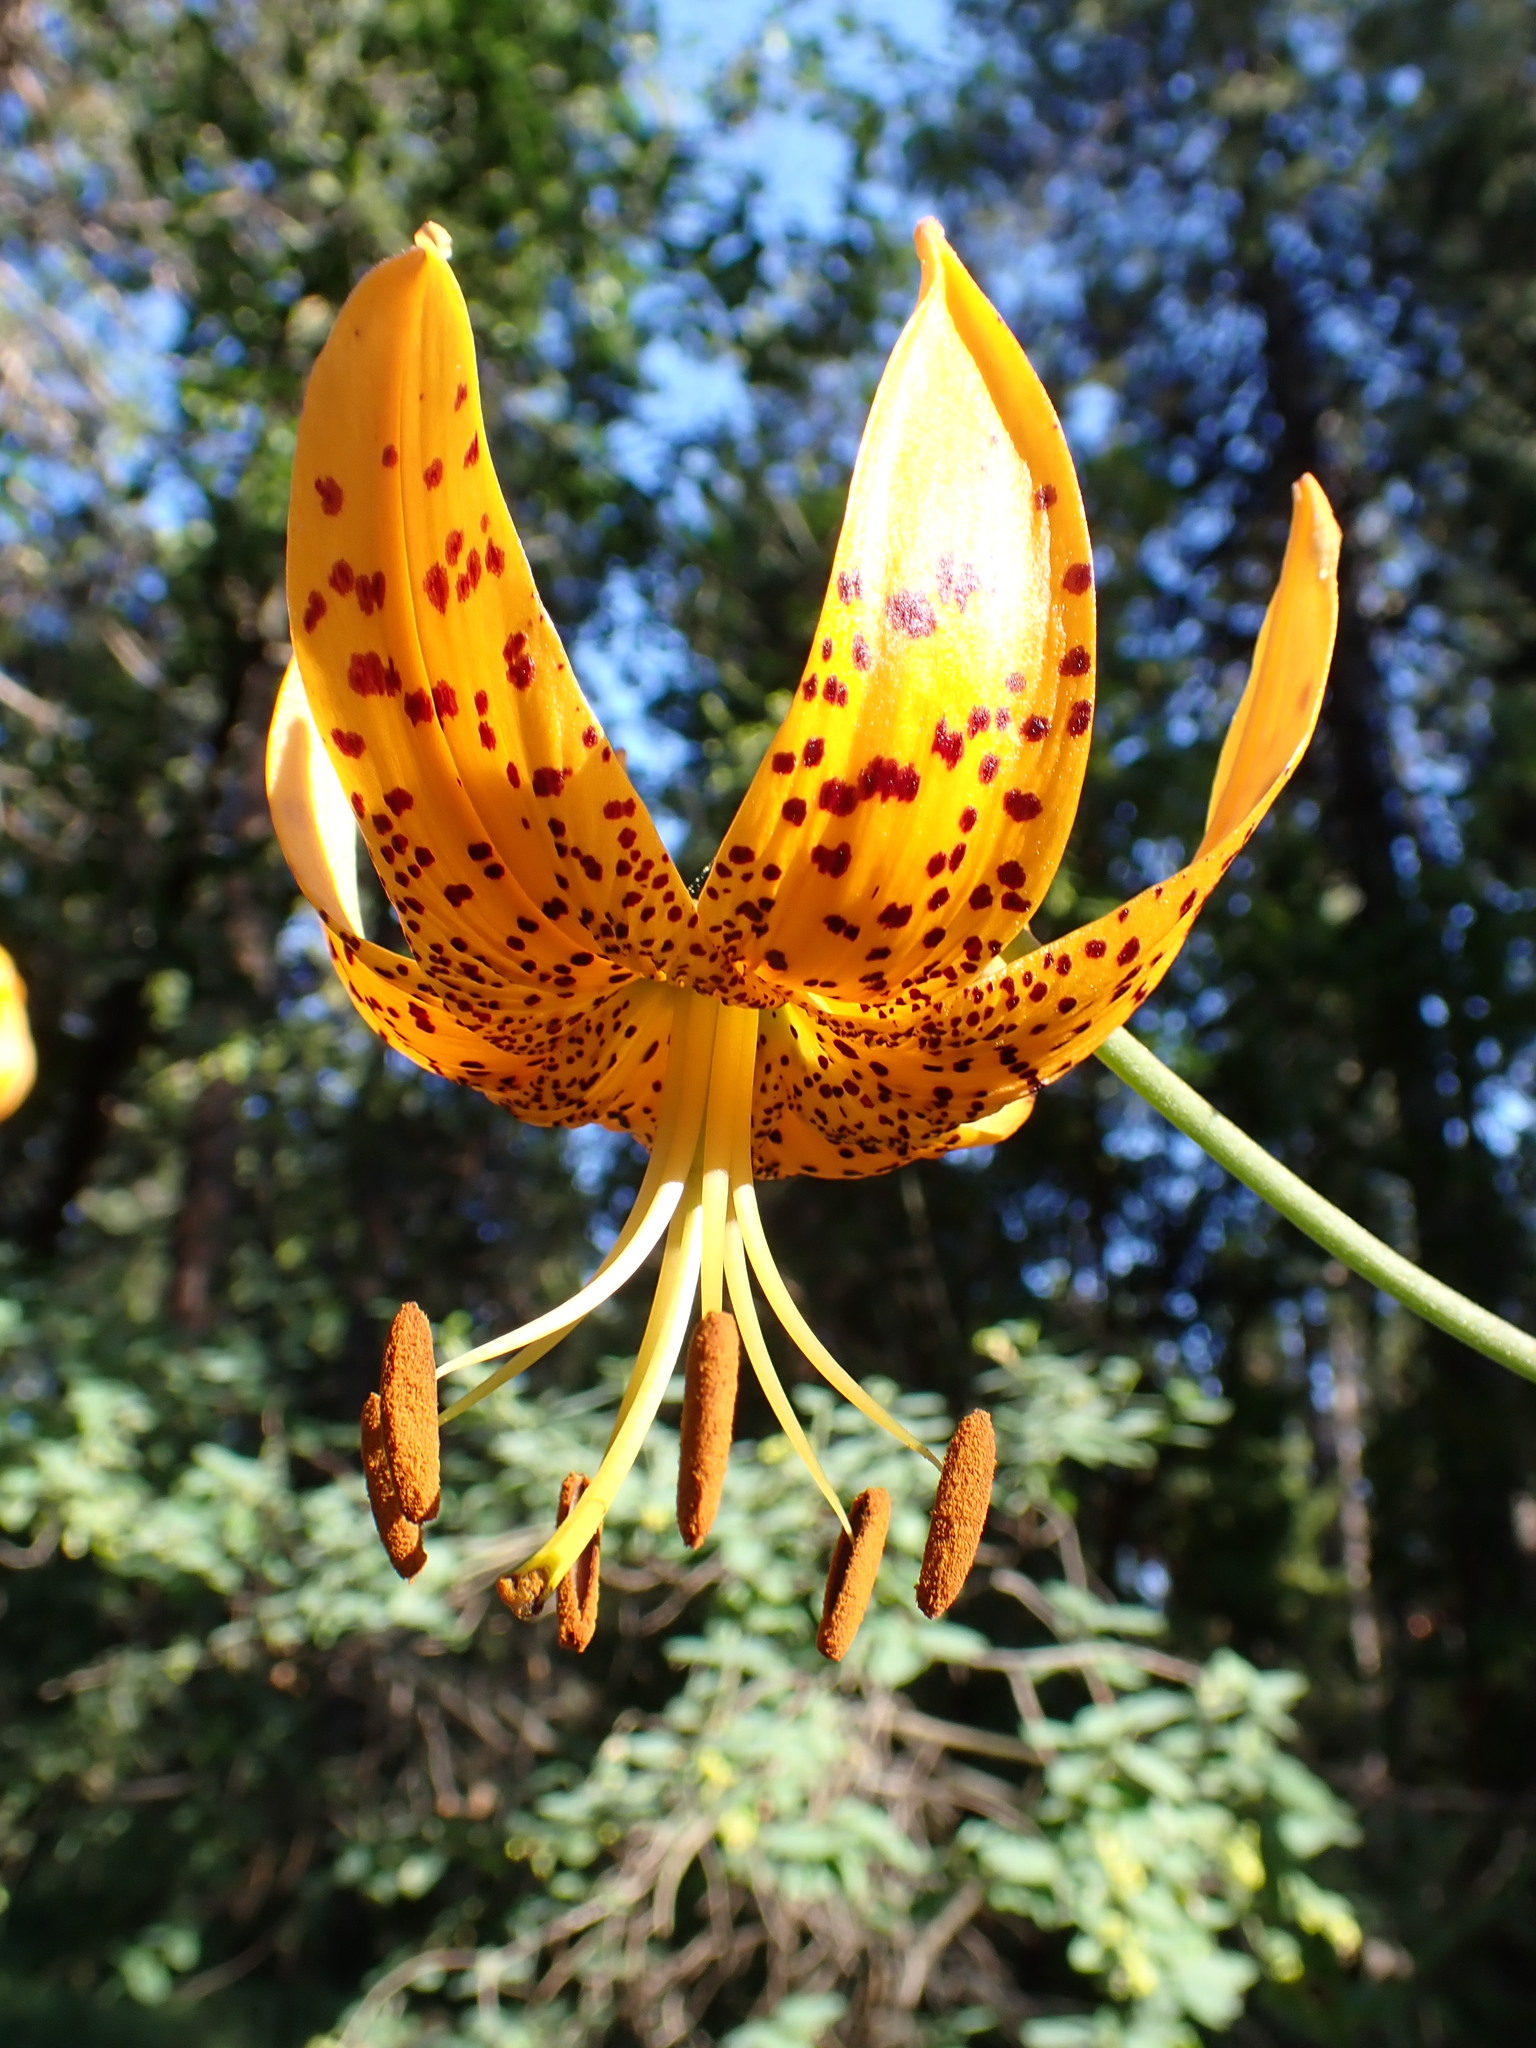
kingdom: Plantae
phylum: Tracheophyta
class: Liliopsida
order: Liliales
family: Liliaceae
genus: Lilium
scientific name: Lilium humboldtii
